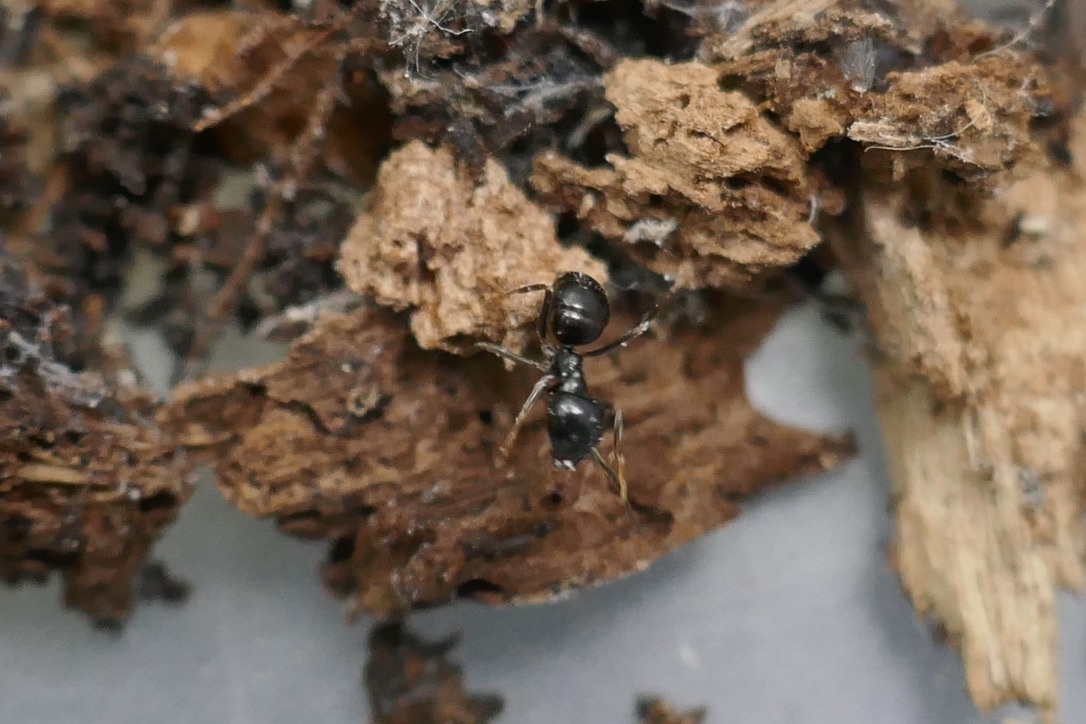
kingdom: Animalia
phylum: Arthropoda
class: Insecta
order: Hymenoptera
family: Formicidae
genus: Lasius
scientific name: Lasius fuliginosus
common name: Jet ant
